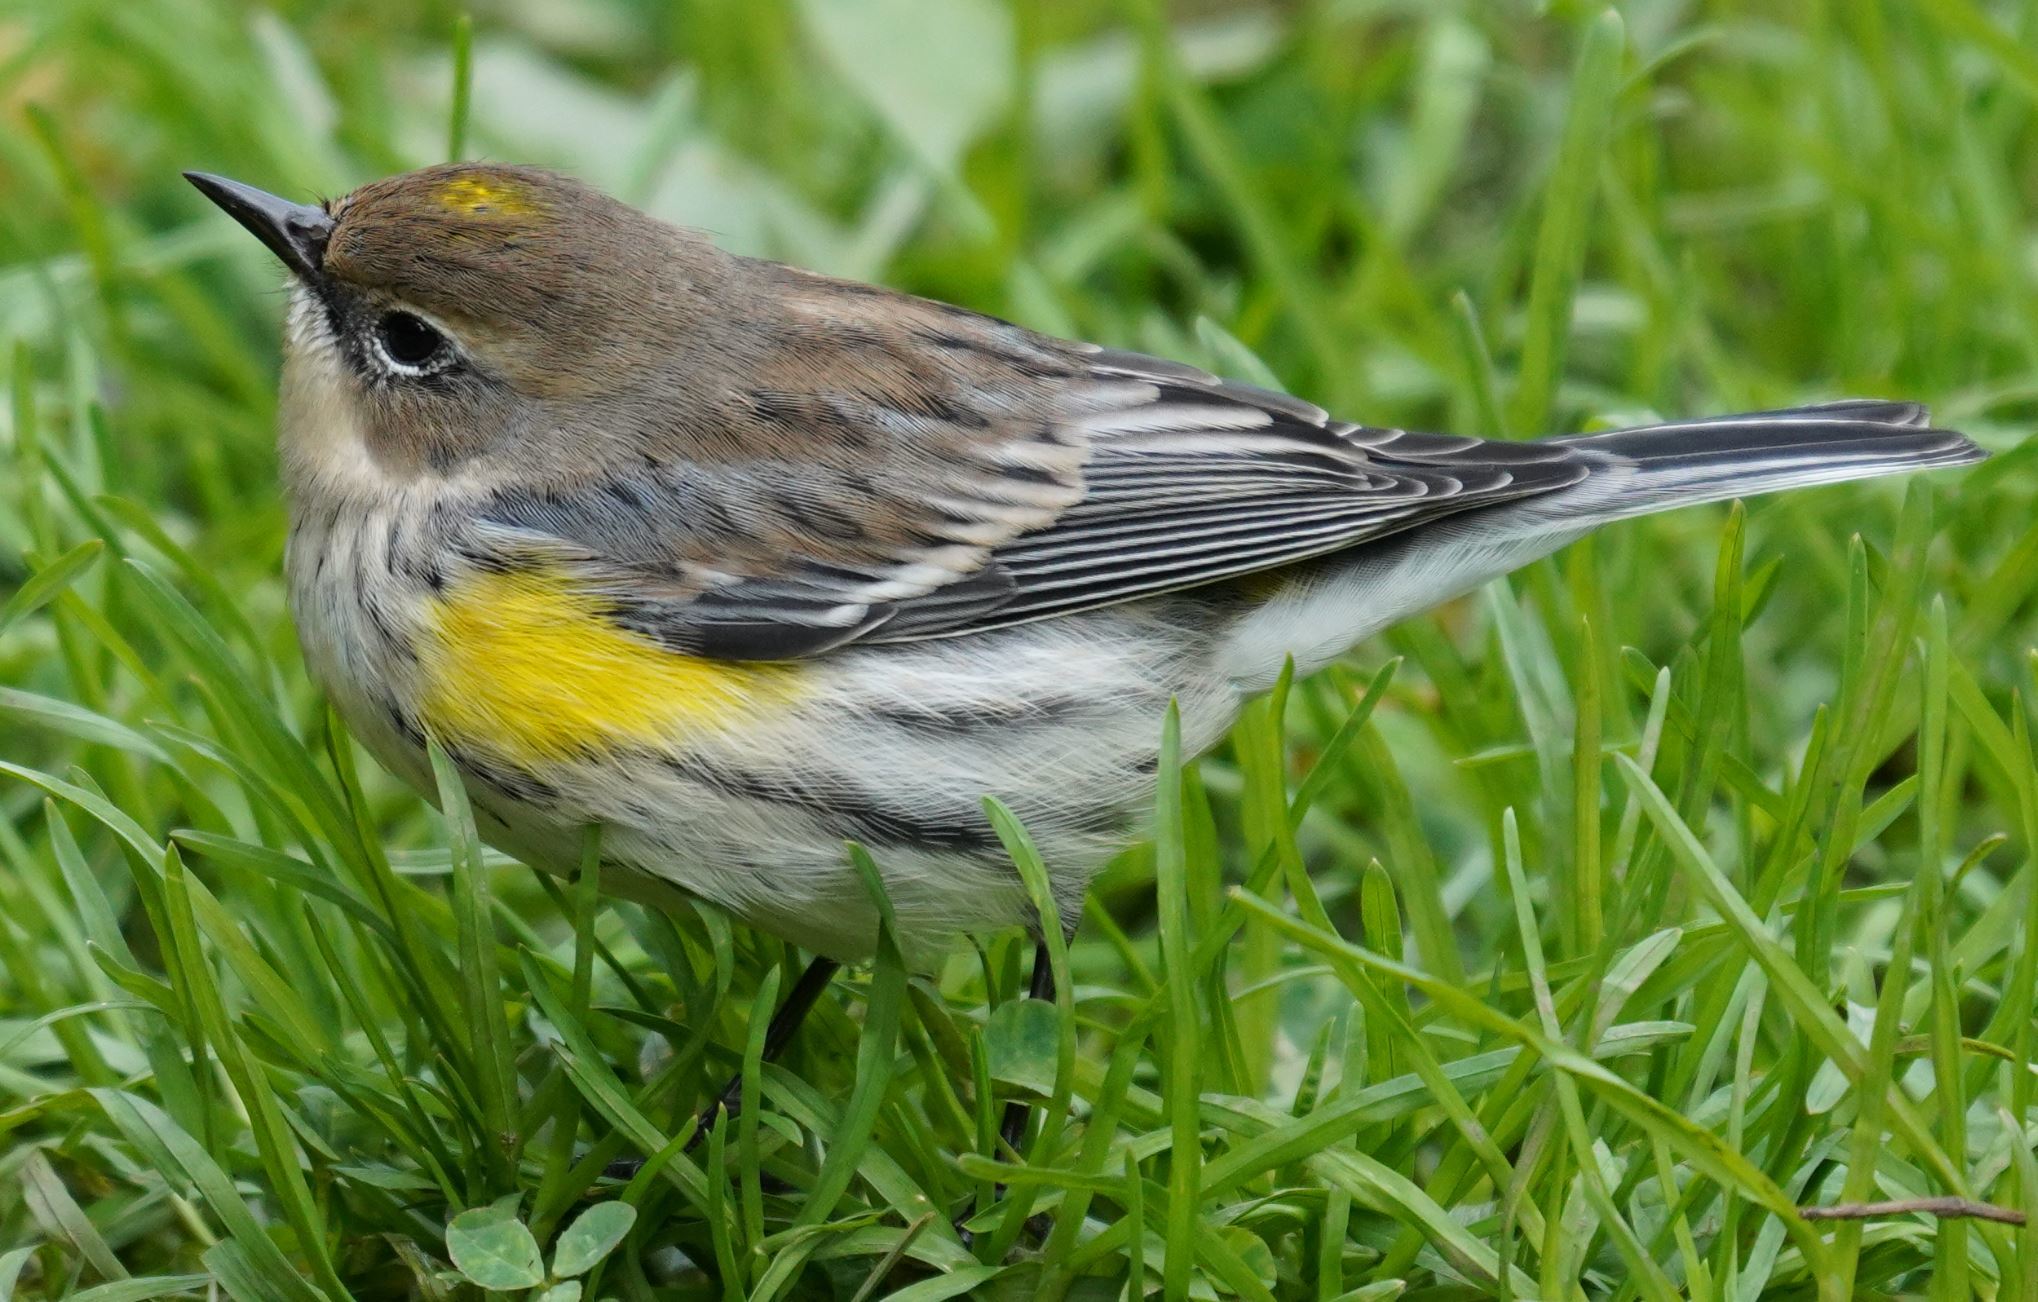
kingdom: Animalia
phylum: Chordata
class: Aves
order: Passeriformes
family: Parulidae
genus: Setophaga
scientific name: Setophaga coronata
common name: Myrtle warbler
